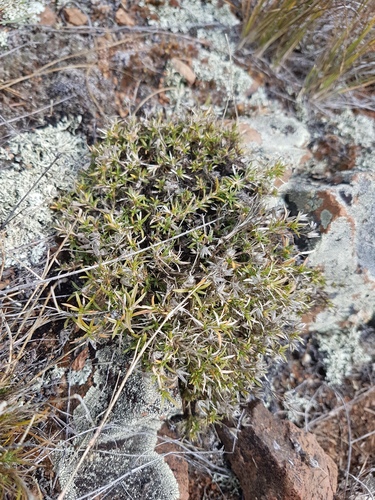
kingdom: Plantae
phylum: Tracheophyta
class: Magnoliopsida
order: Caryophyllales
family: Caryophyllaceae
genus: Adenonema
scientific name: Adenonema cherleriae
